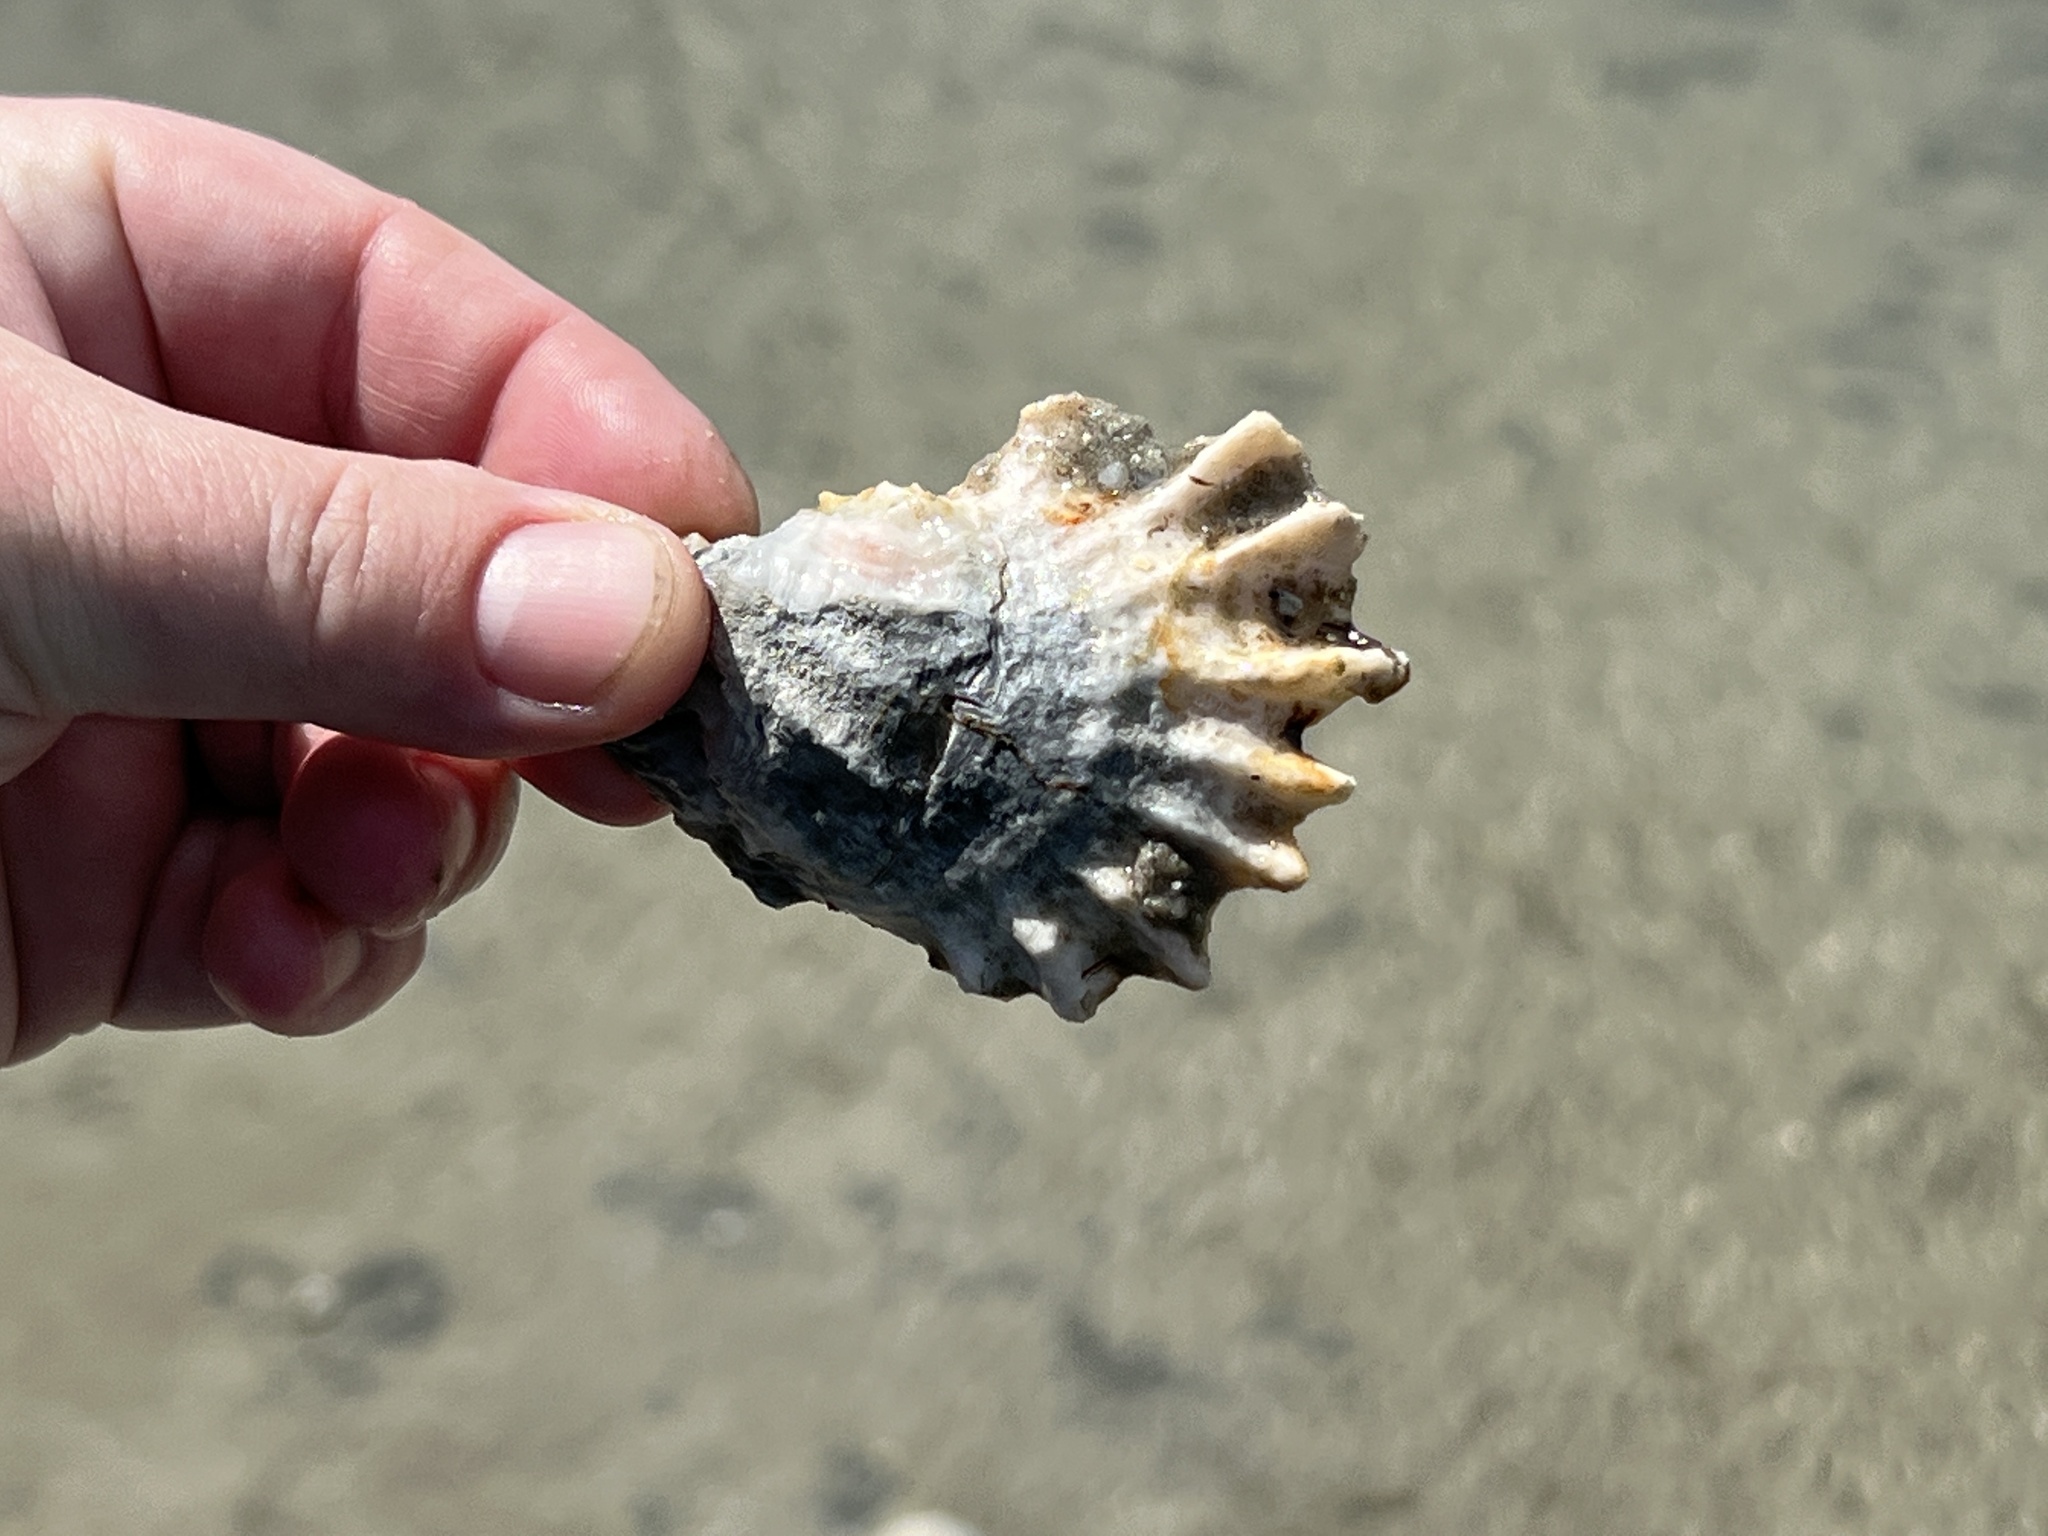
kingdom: Animalia
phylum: Mollusca
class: Bivalvia
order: Ostreida
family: Ostreidae
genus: Crassostrea
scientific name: Crassostrea virginica
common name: American oyster
